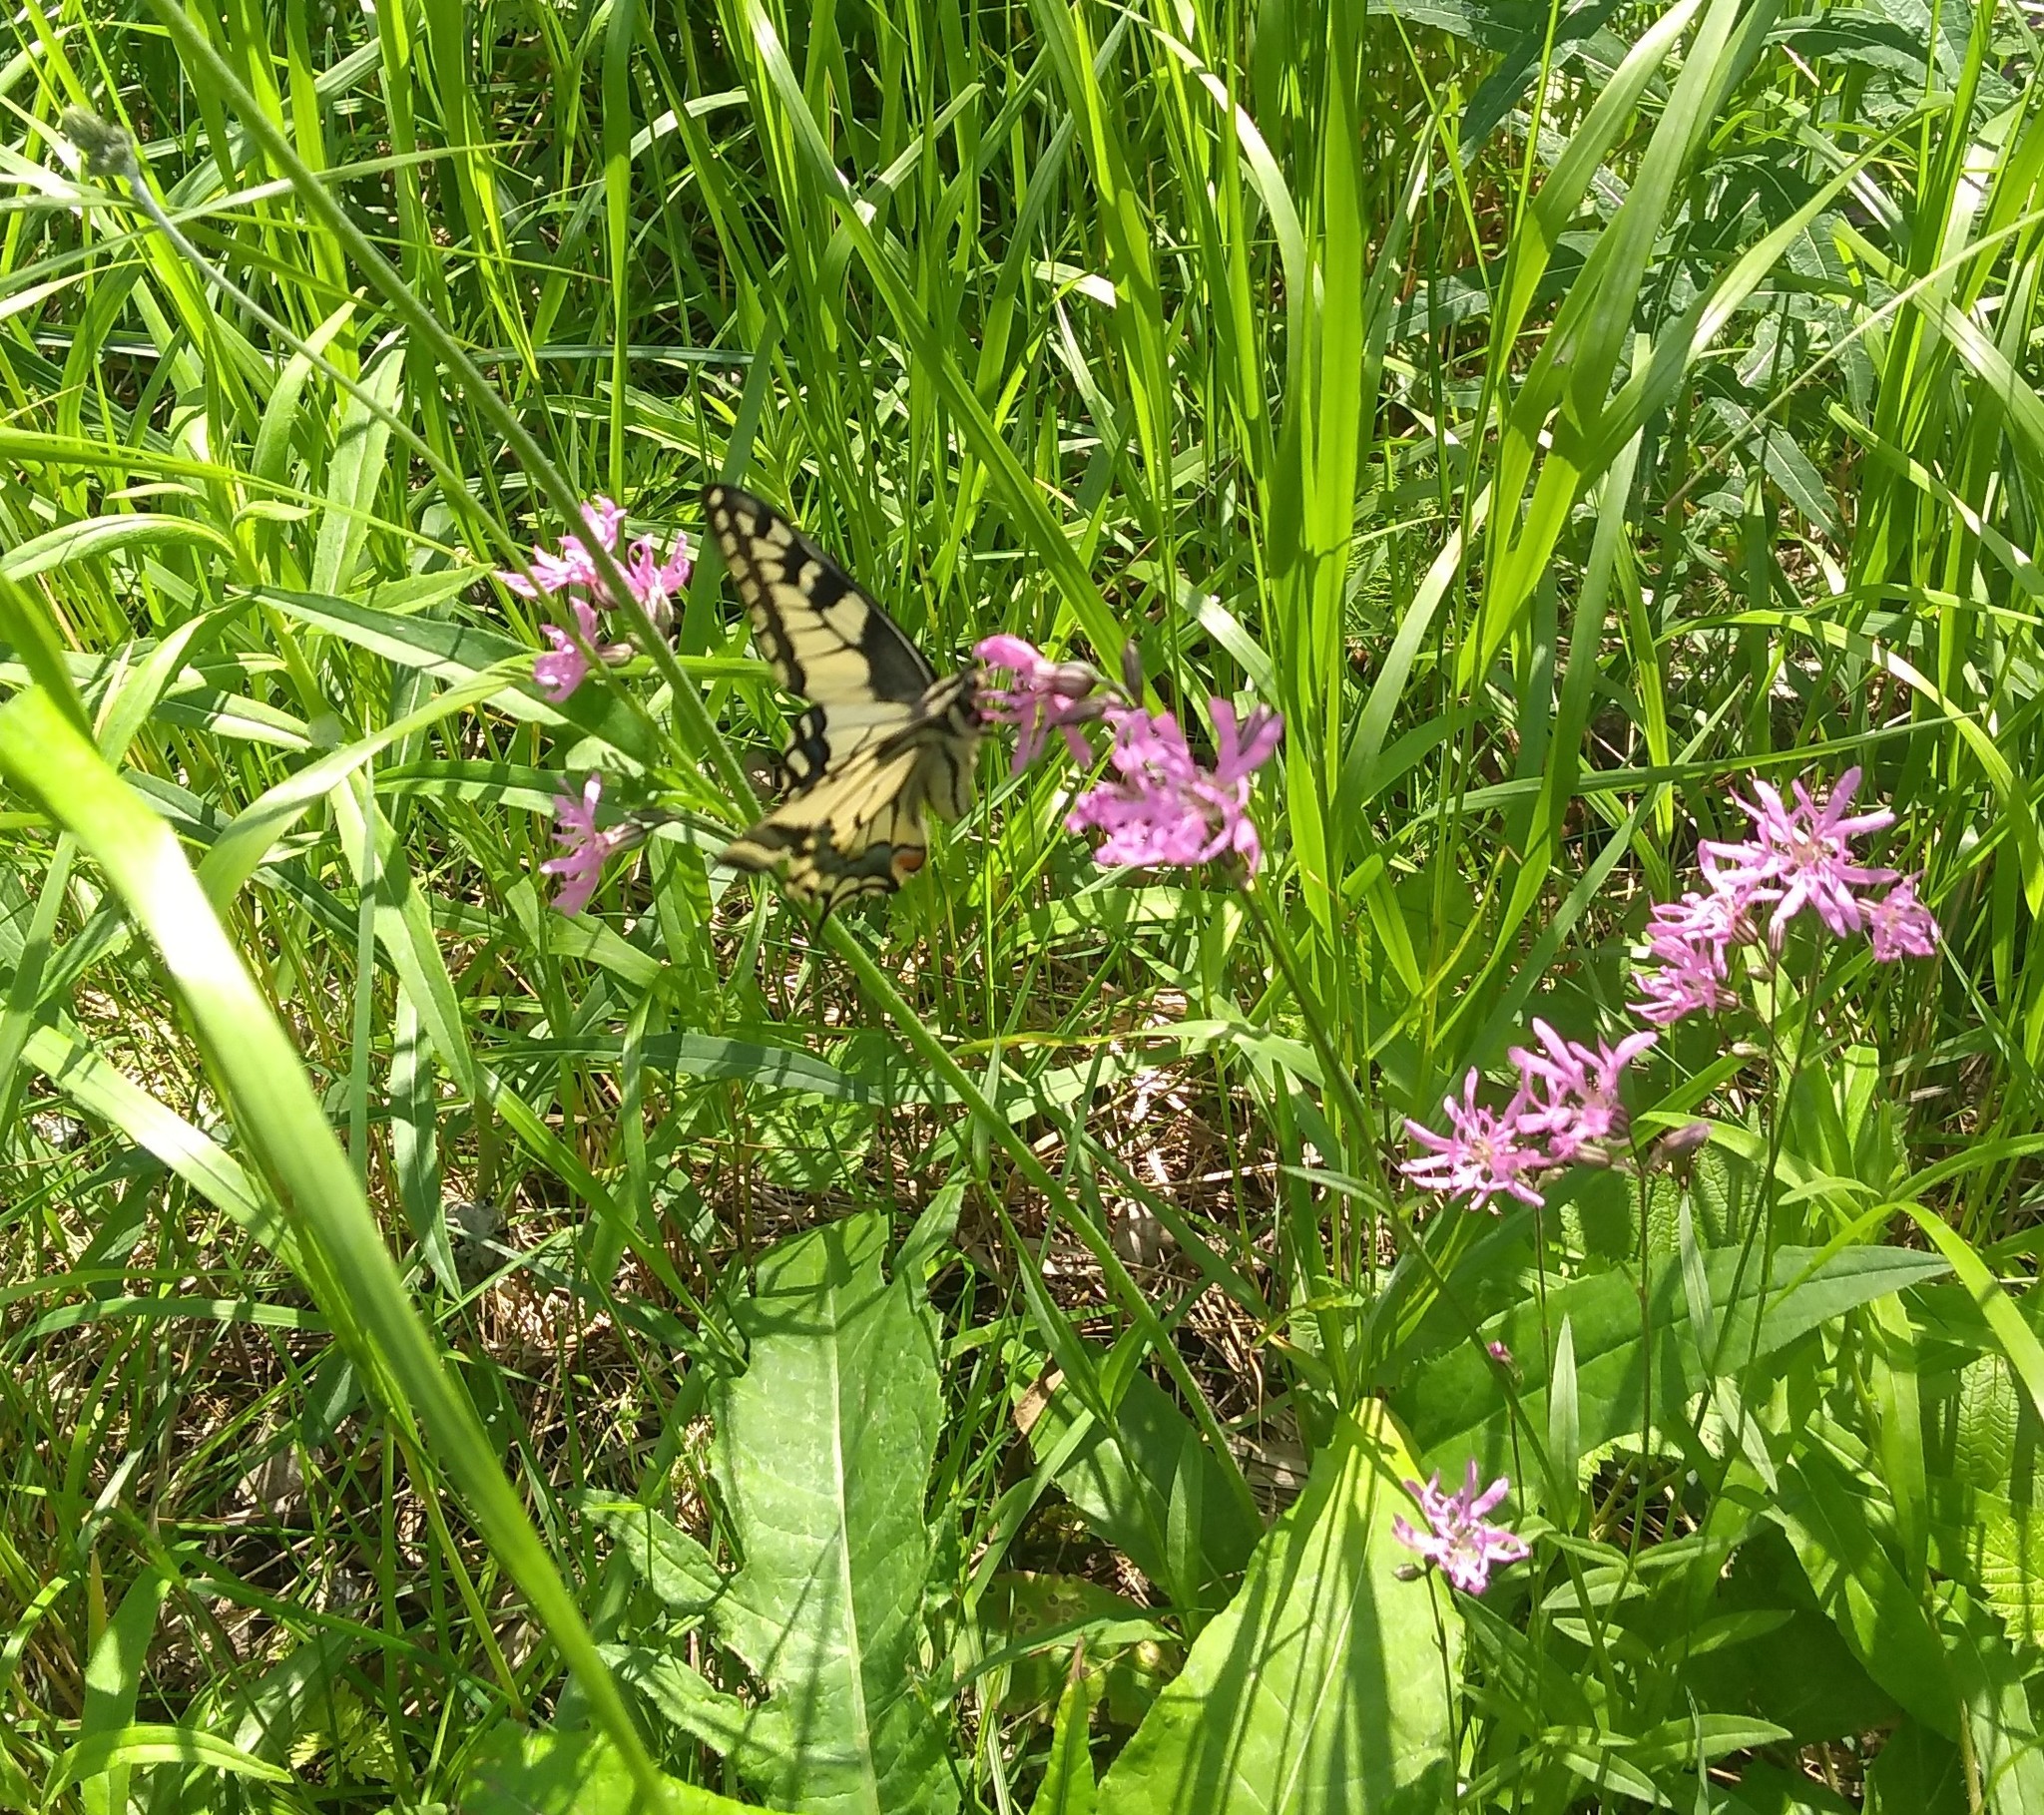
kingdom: Animalia
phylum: Arthropoda
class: Insecta
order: Lepidoptera
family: Papilionidae
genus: Papilio
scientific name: Papilio machaon
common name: Swallowtail
